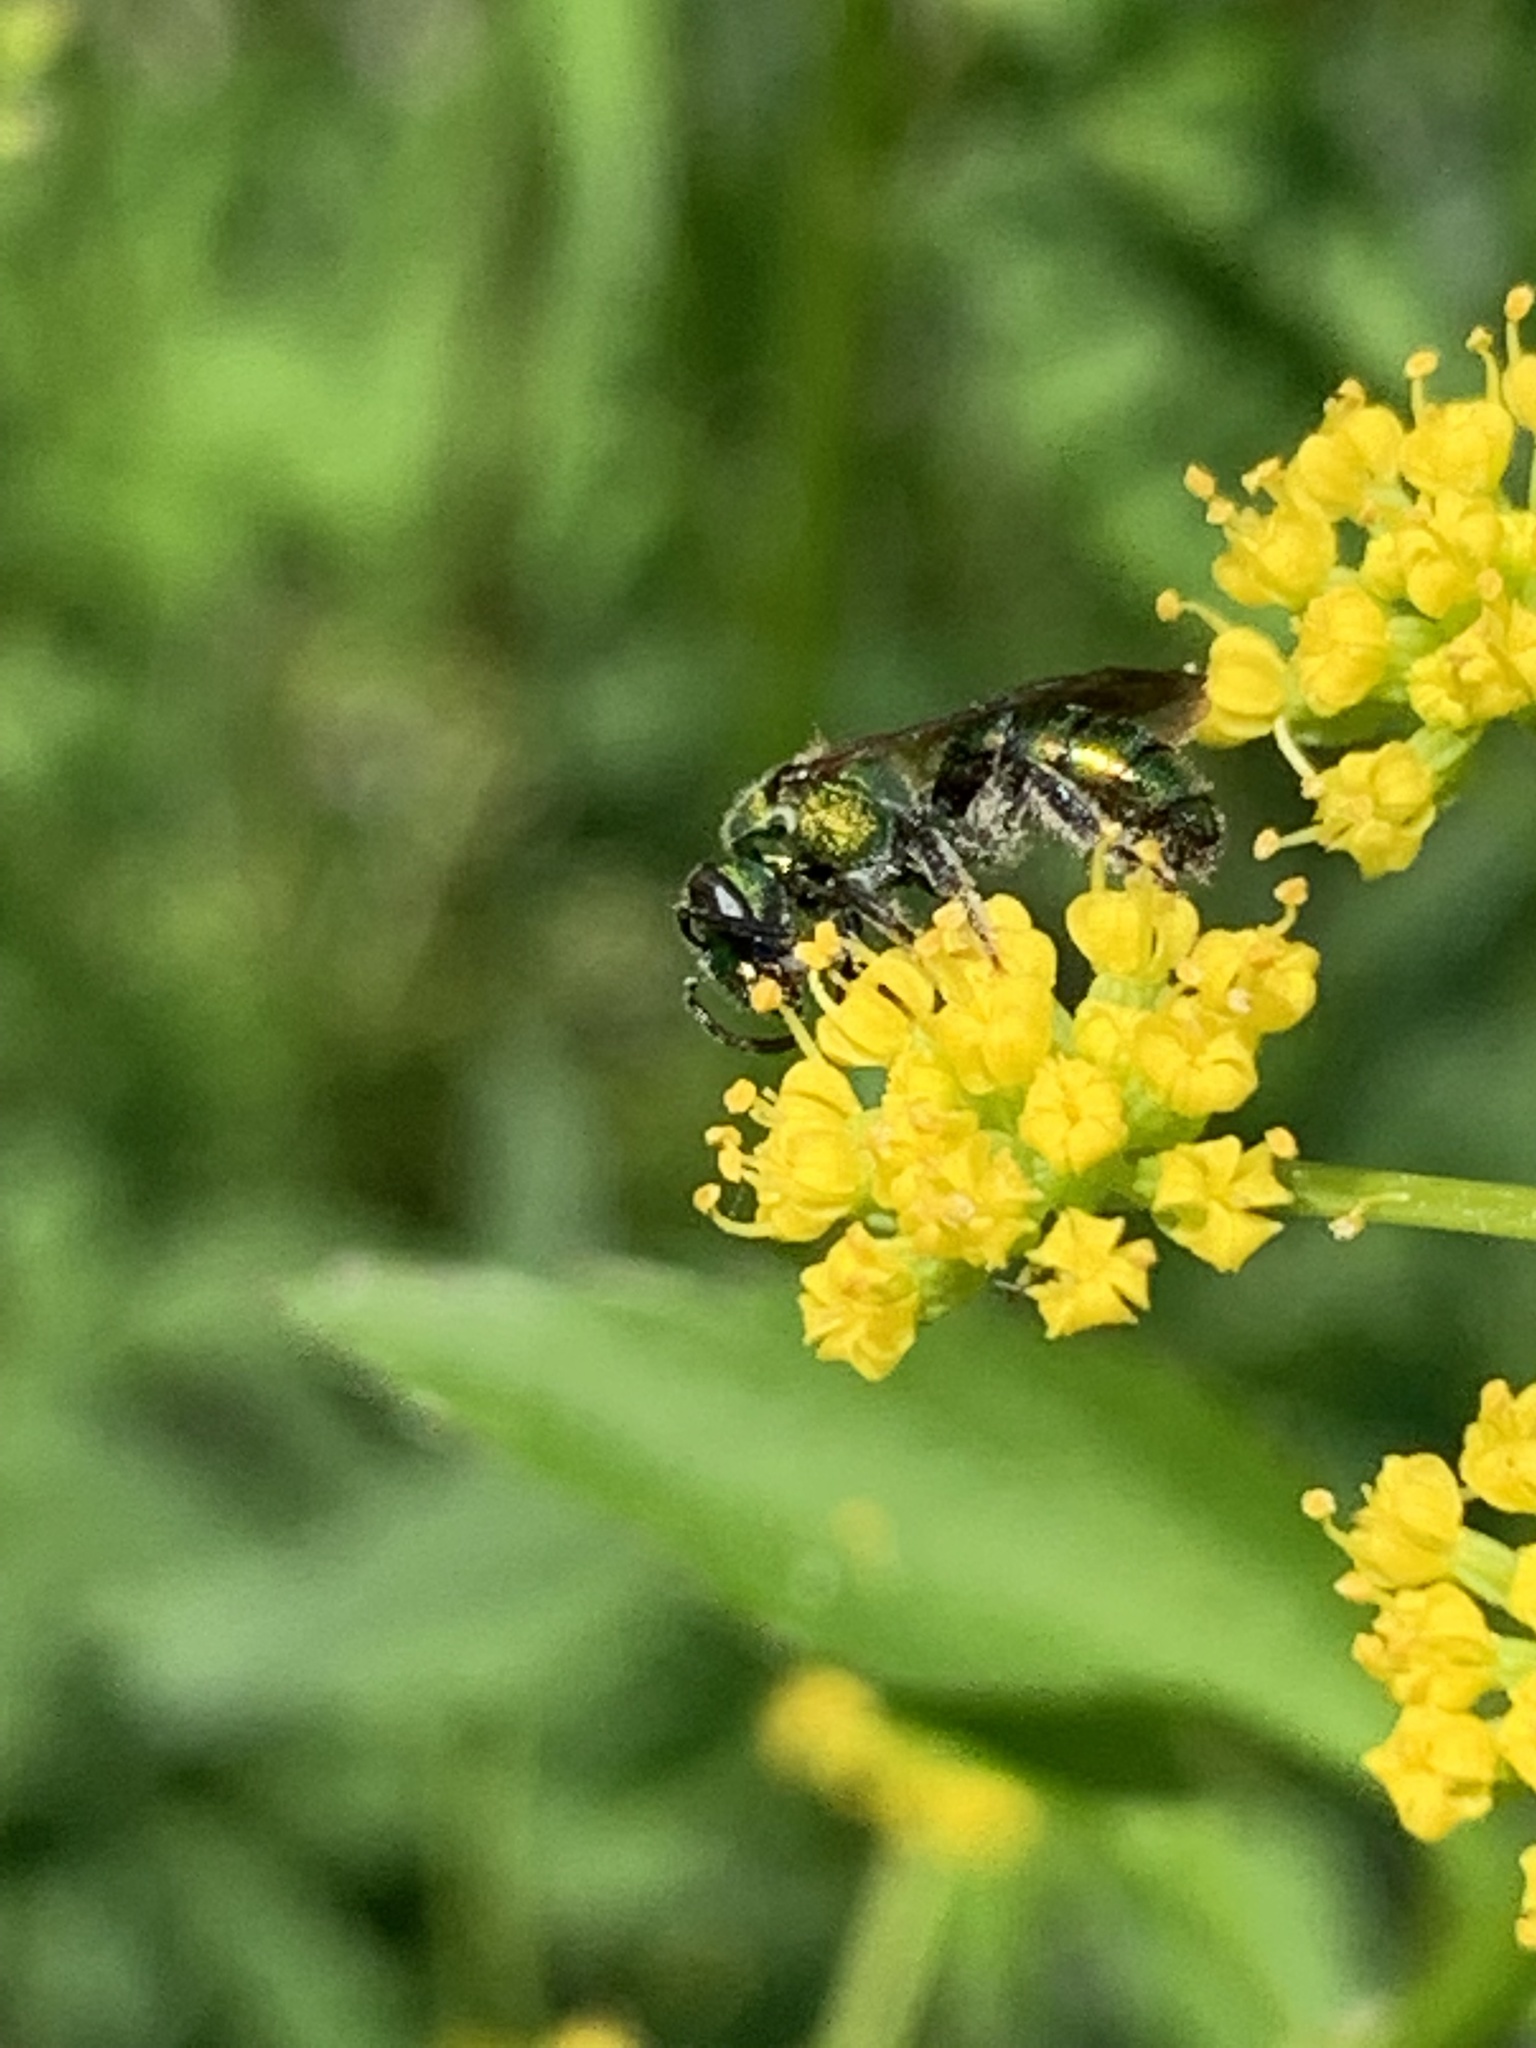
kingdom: Animalia
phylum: Arthropoda
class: Insecta
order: Hymenoptera
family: Halictidae
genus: Augochlora
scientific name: Augochlora pura
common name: Pure green sweat bee
